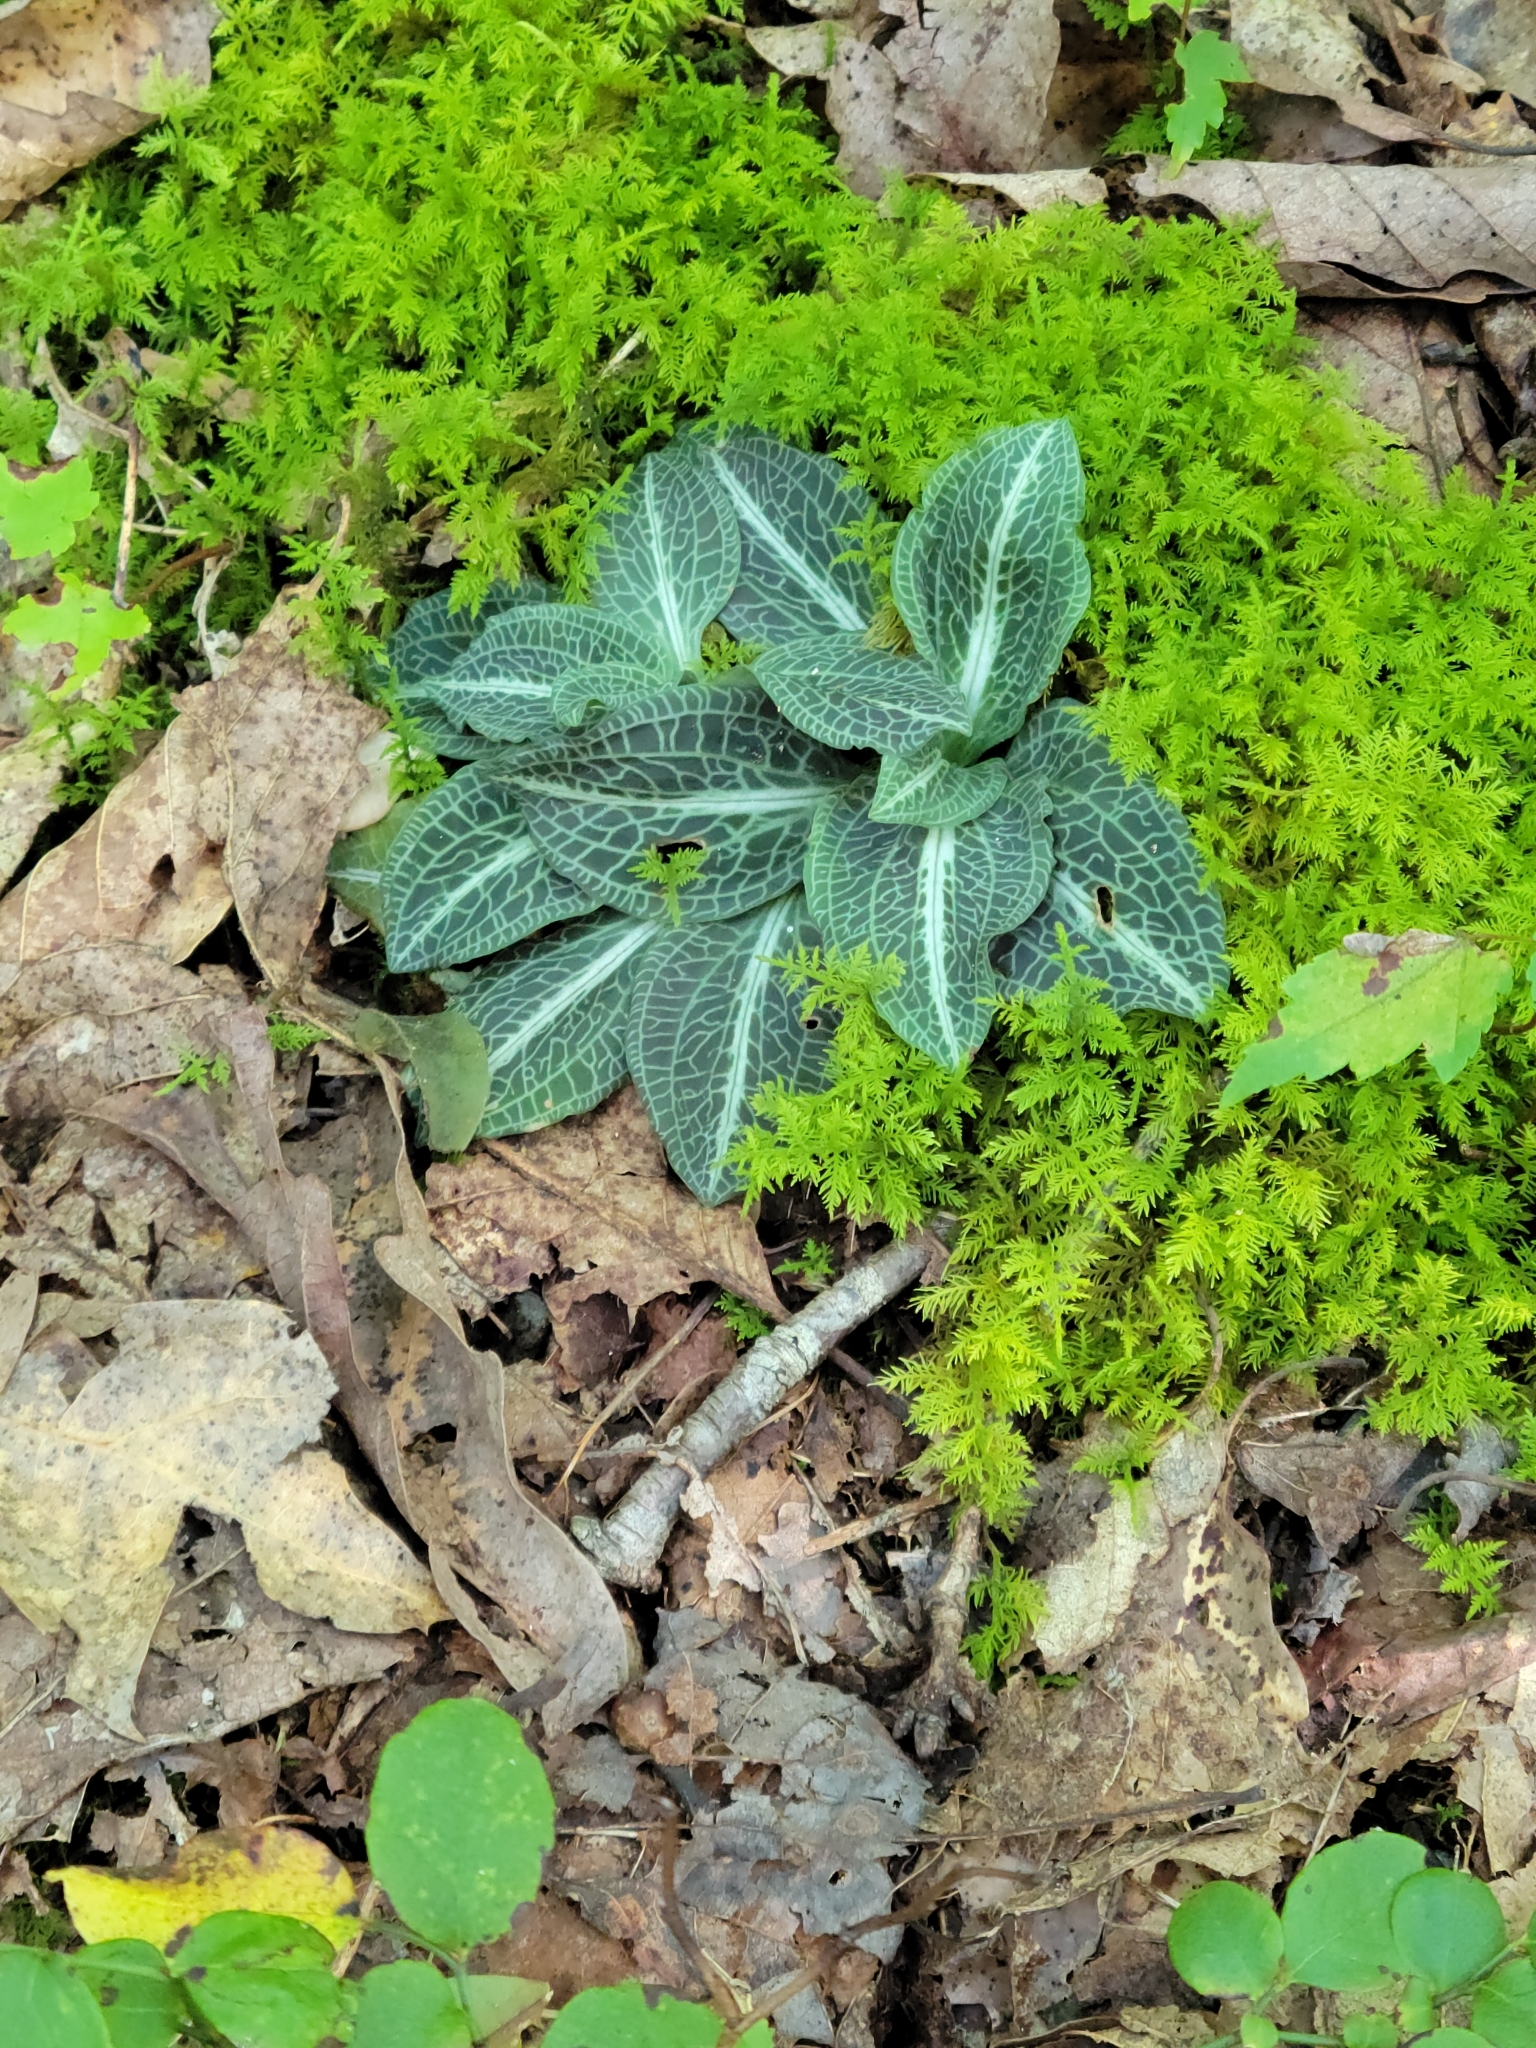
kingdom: Plantae
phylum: Tracheophyta
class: Liliopsida
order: Asparagales
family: Orchidaceae
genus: Goodyera
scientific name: Goodyera pubescens
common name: Downy rattlesnake-plantain
